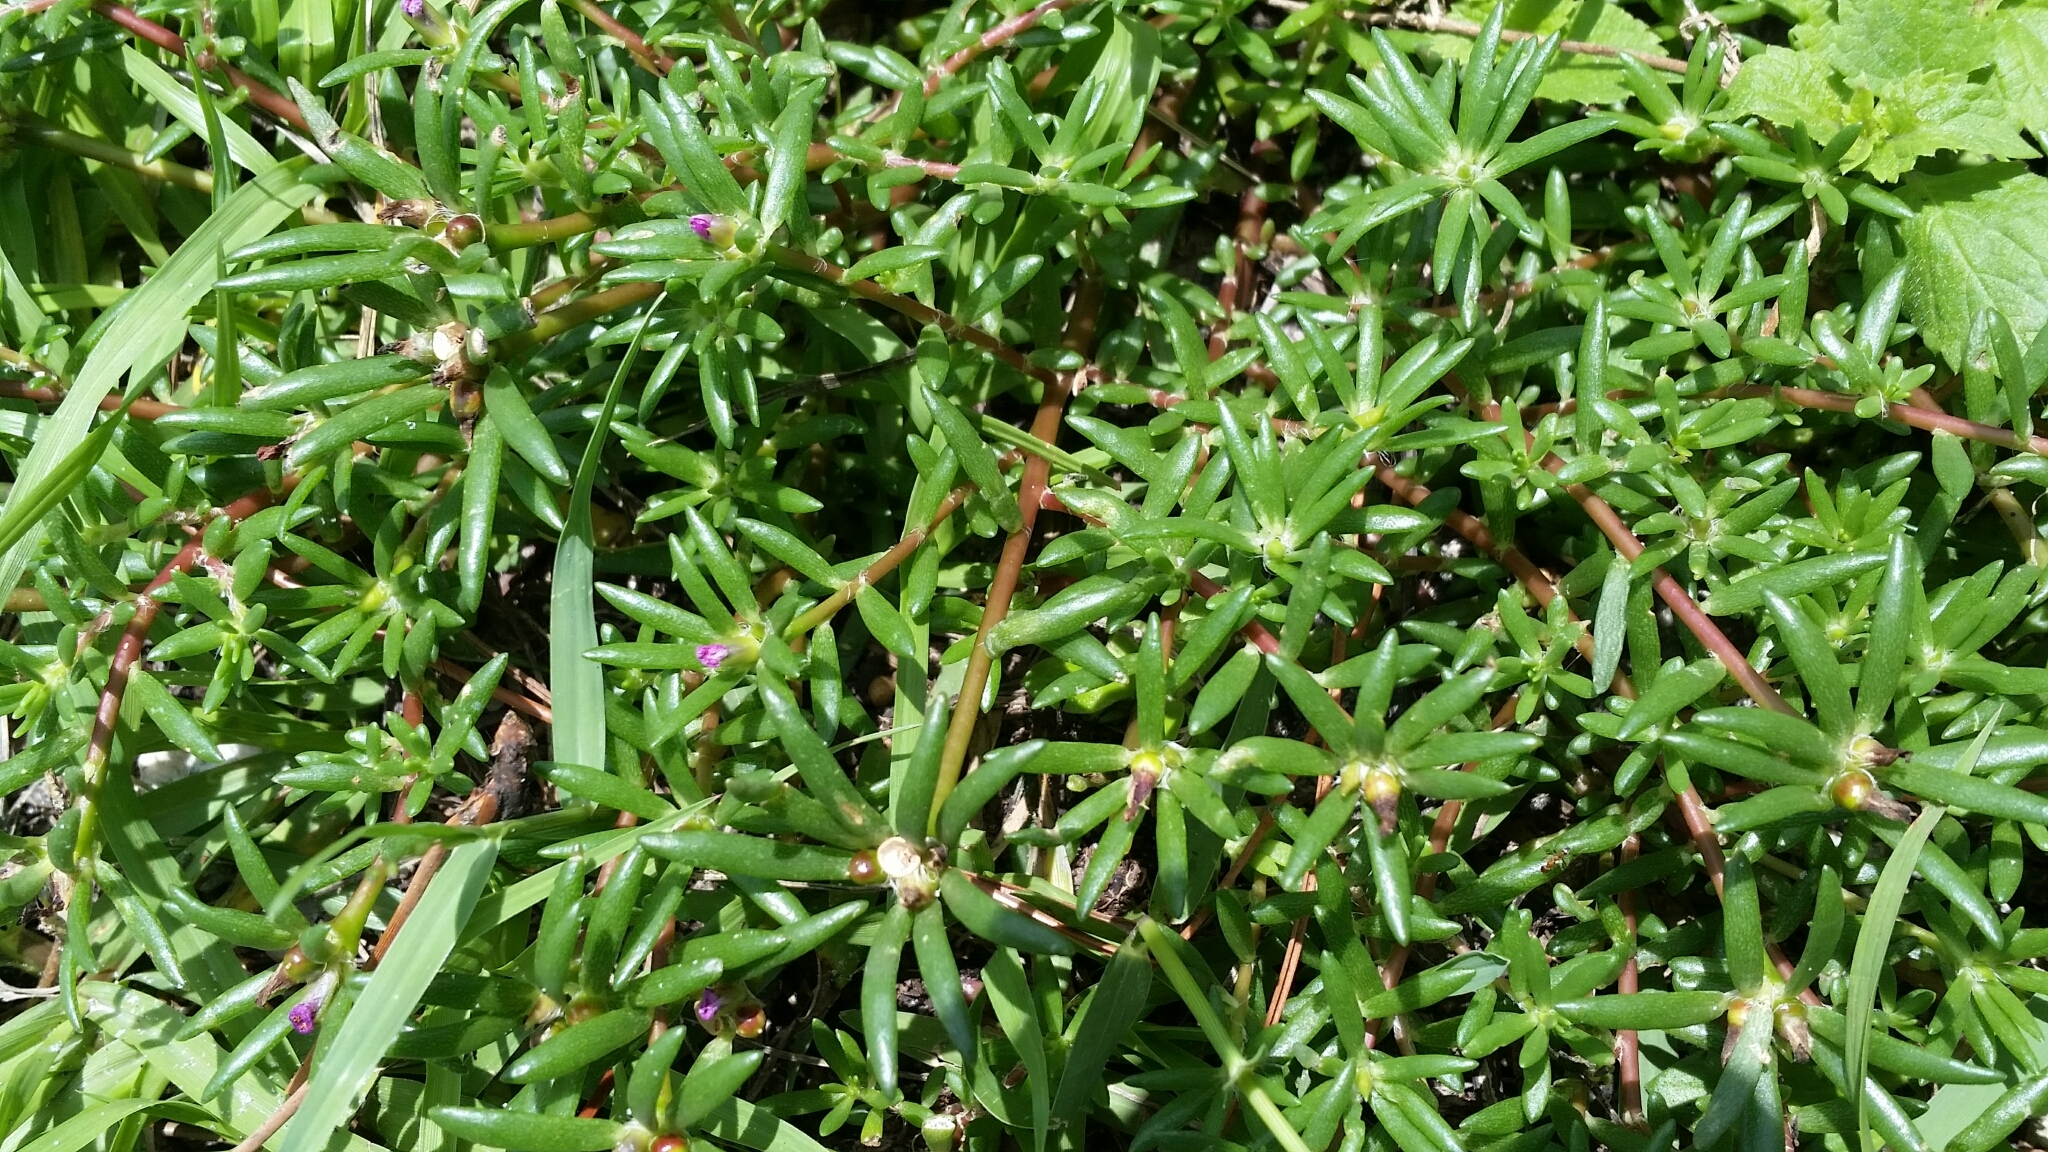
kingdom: Plantae
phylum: Tracheophyta
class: Magnoliopsida
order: Caryophyllales
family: Portulacaceae
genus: Portulaca
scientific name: Portulaca pilosa
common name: Kiss me quick
